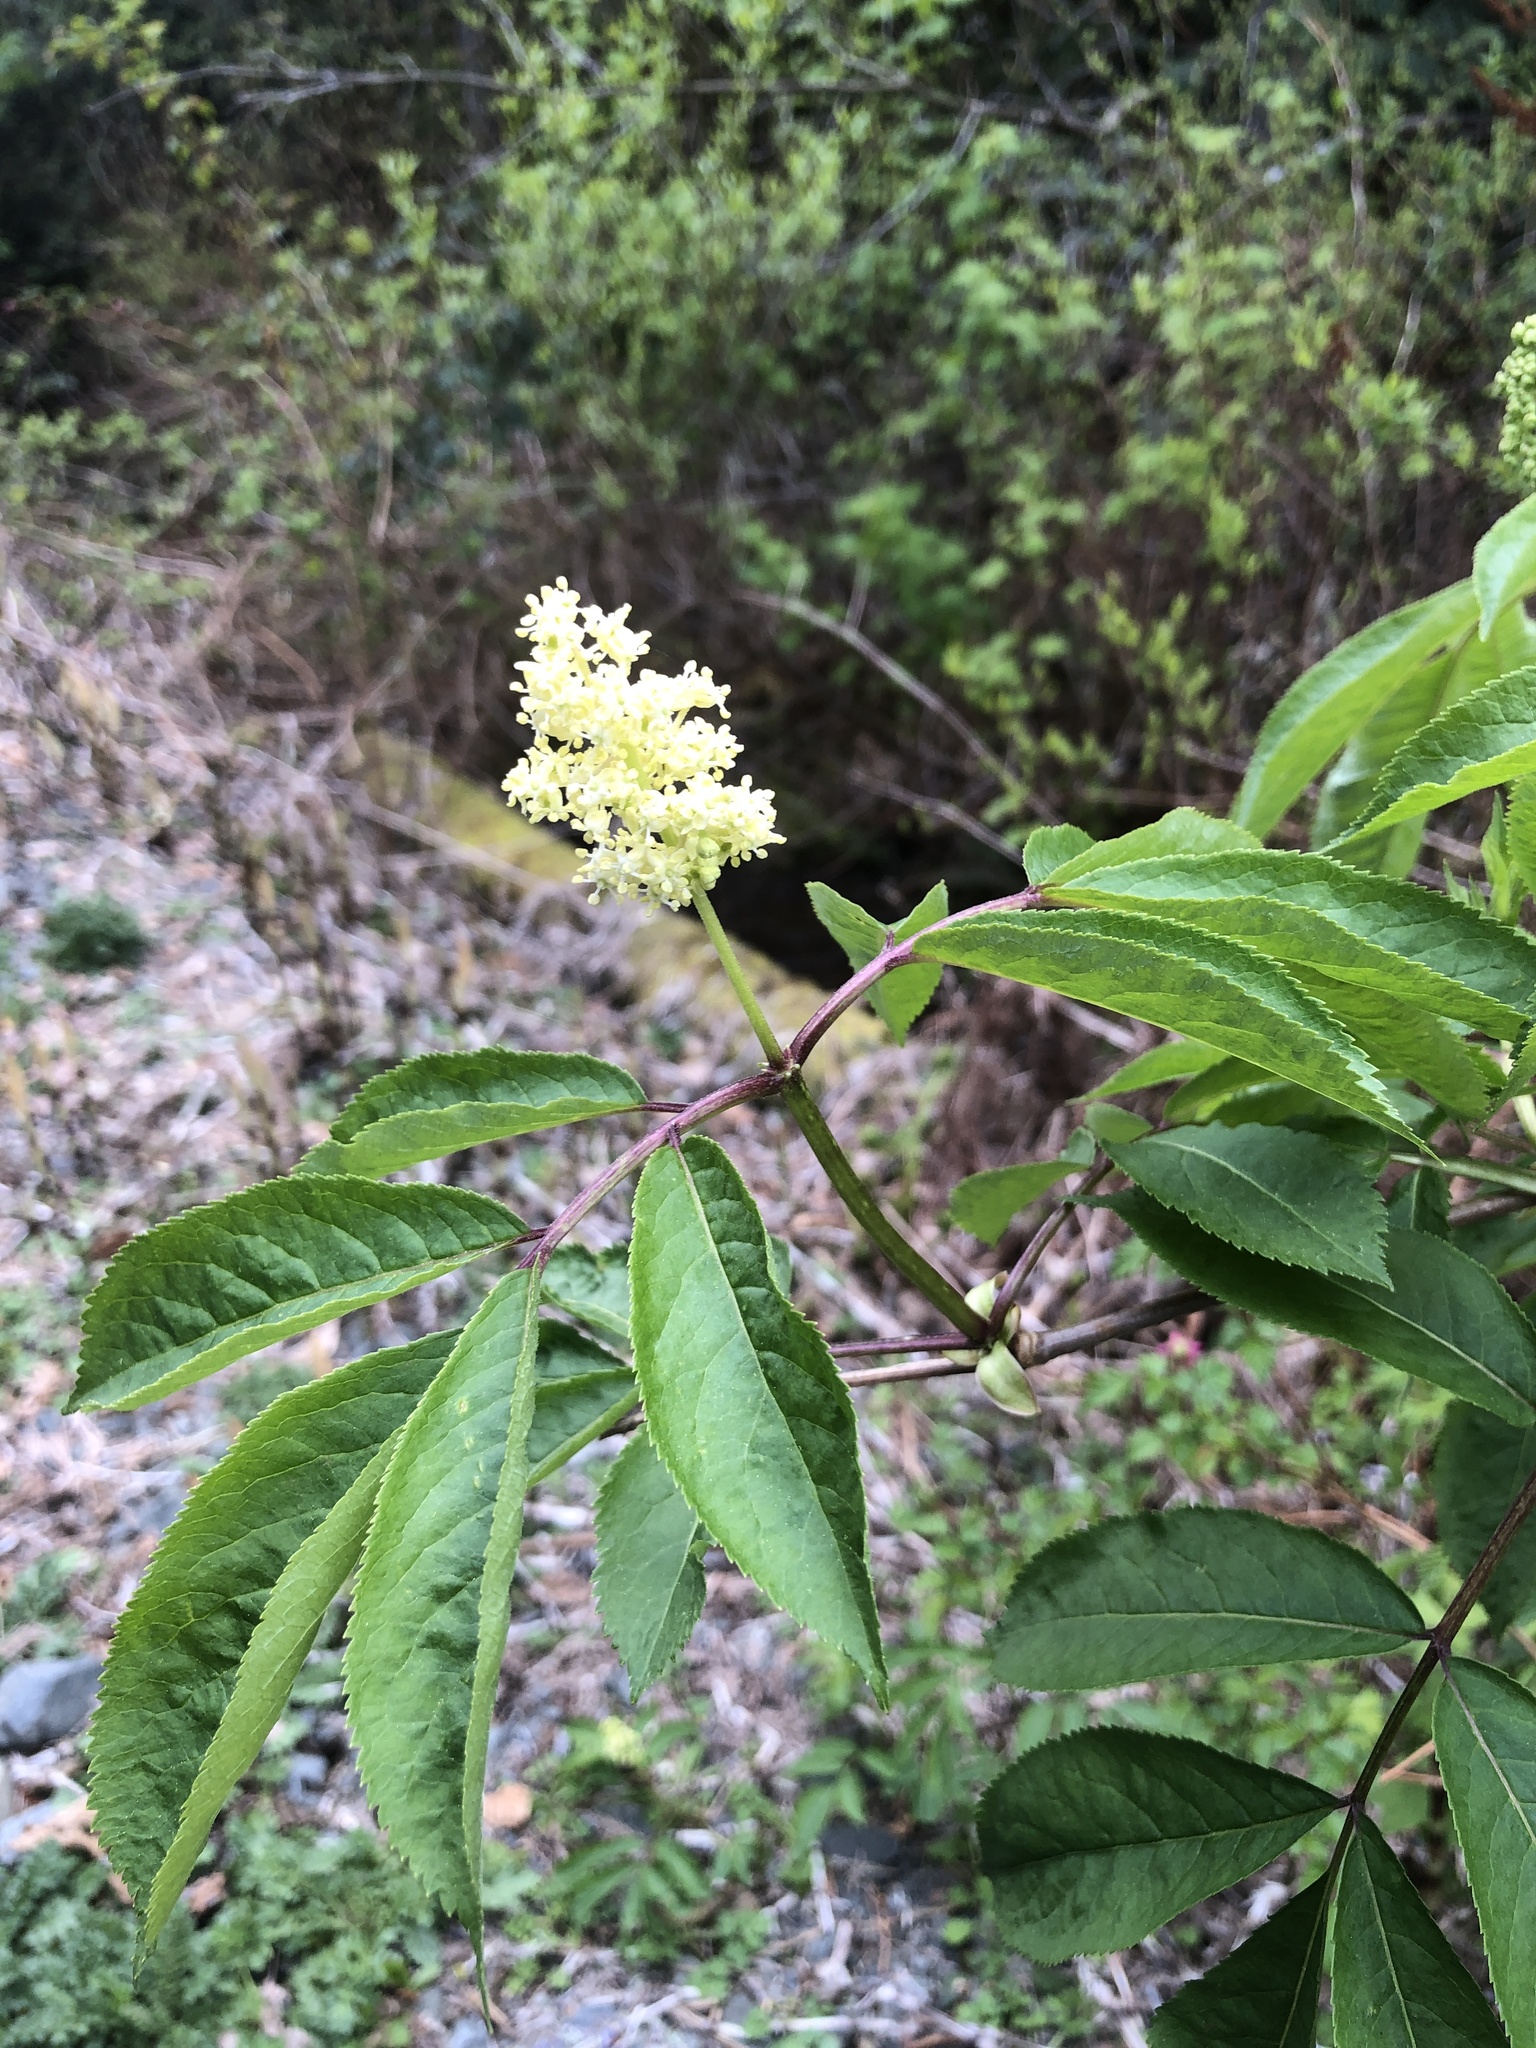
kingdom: Plantae
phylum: Tracheophyta
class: Magnoliopsida
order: Dipsacales
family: Viburnaceae
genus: Sambucus
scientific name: Sambucus racemosa
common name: Red-berried elder
